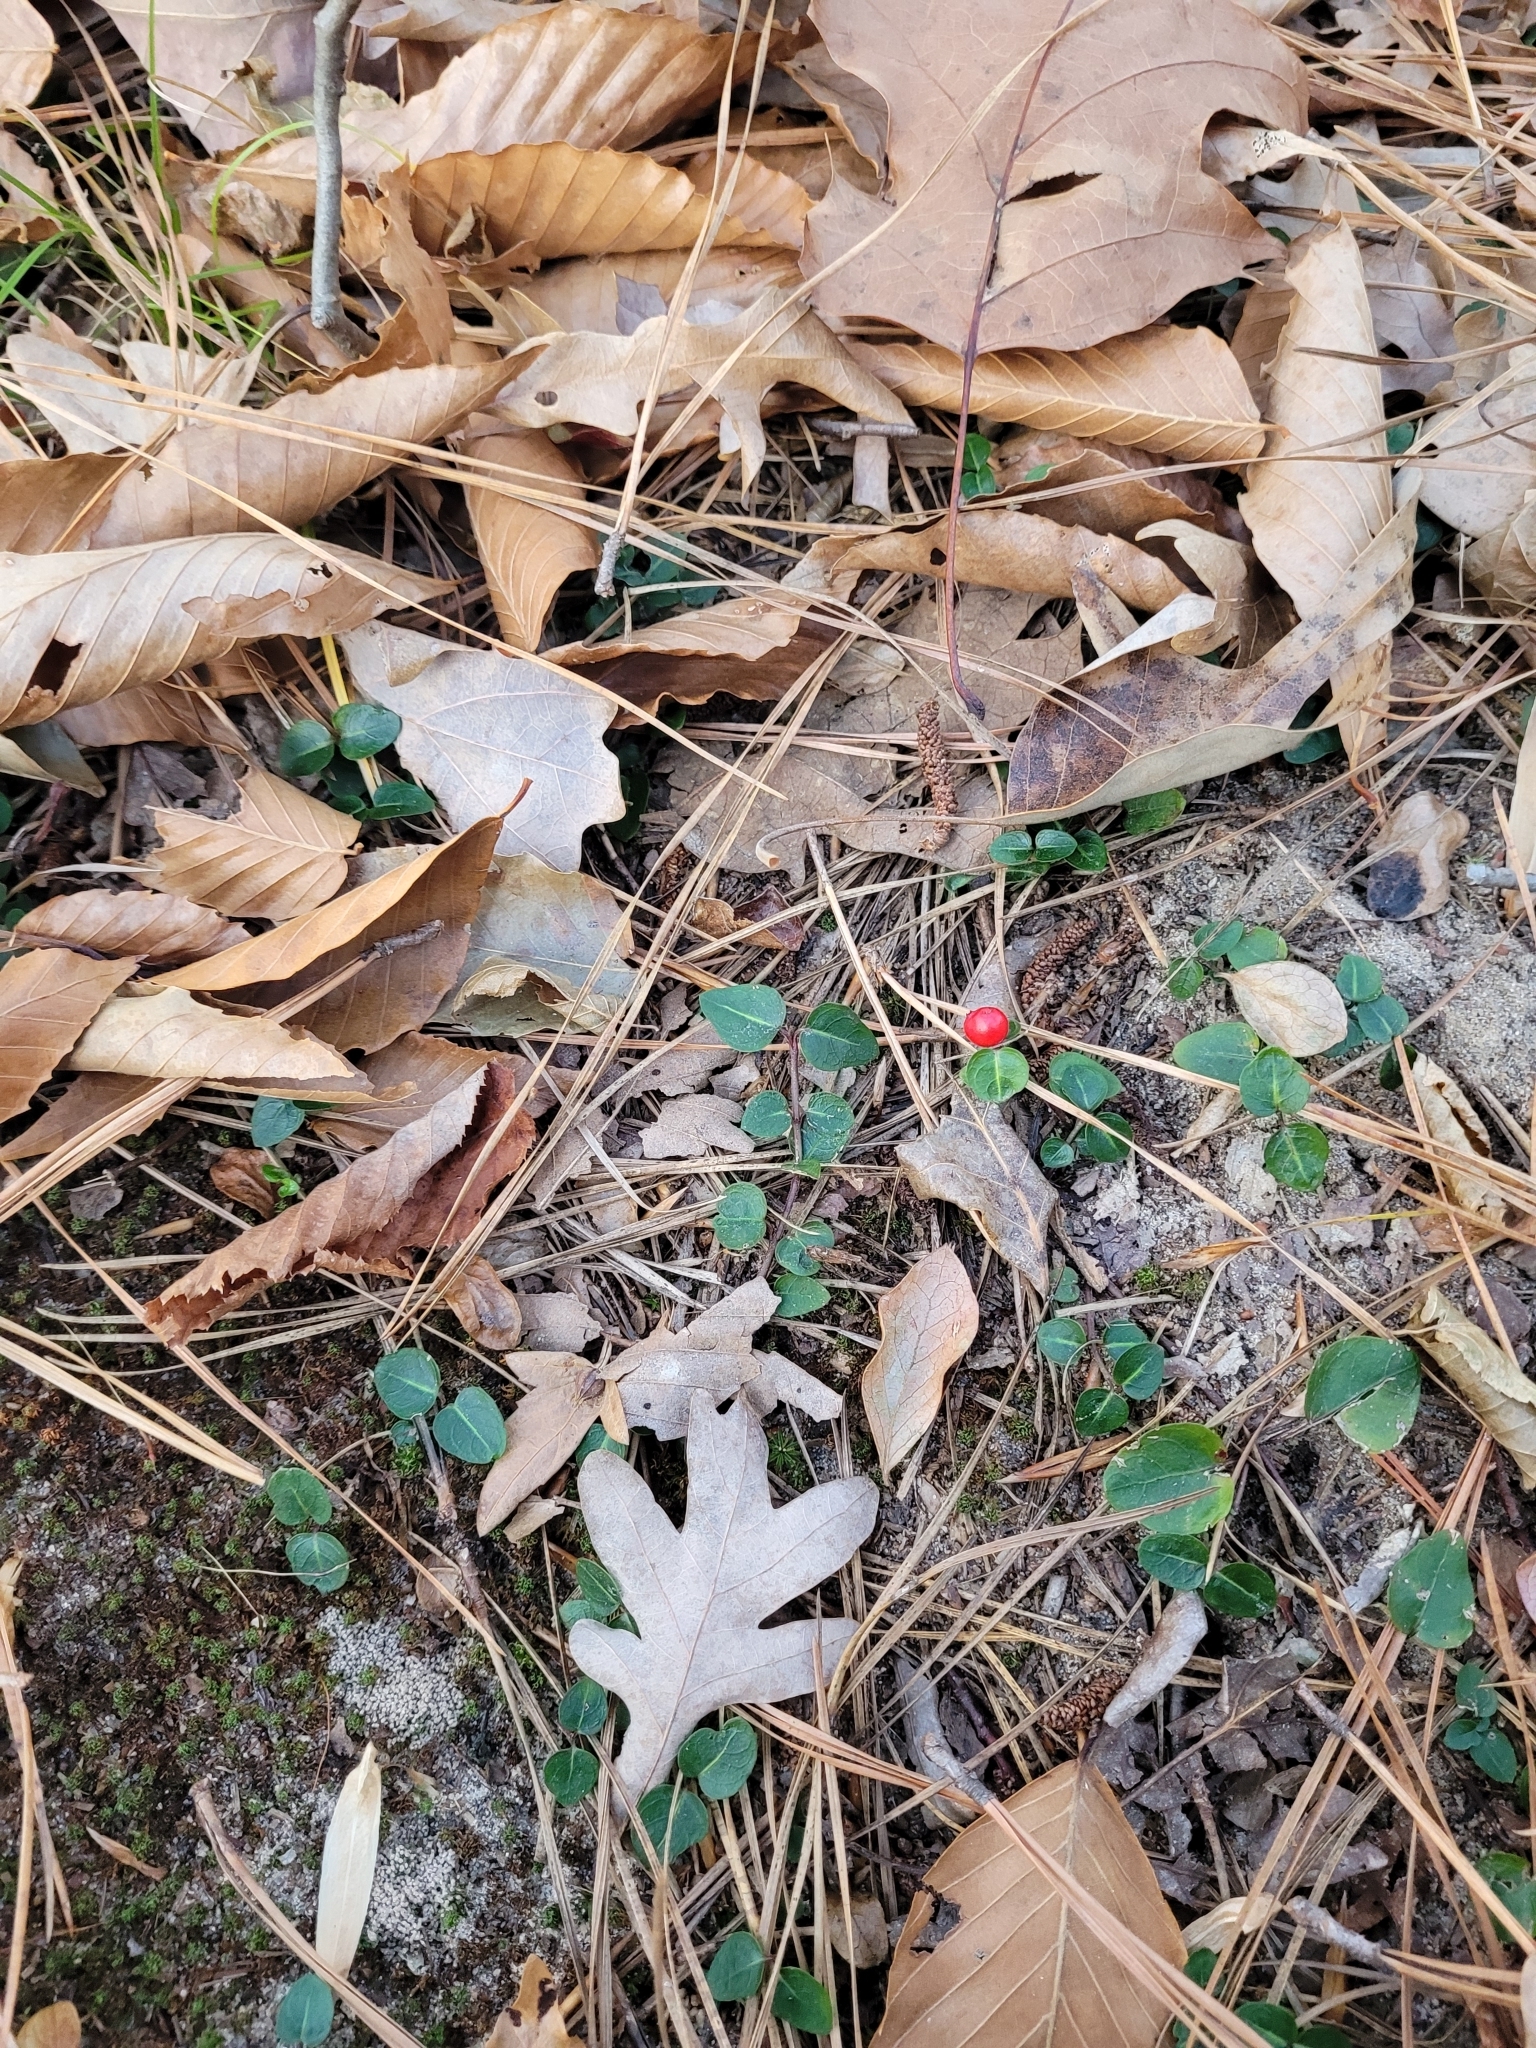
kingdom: Plantae
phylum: Tracheophyta
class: Magnoliopsida
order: Gentianales
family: Rubiaceae
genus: Mitchella
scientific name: Mitchella repens
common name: Partridge-berry
